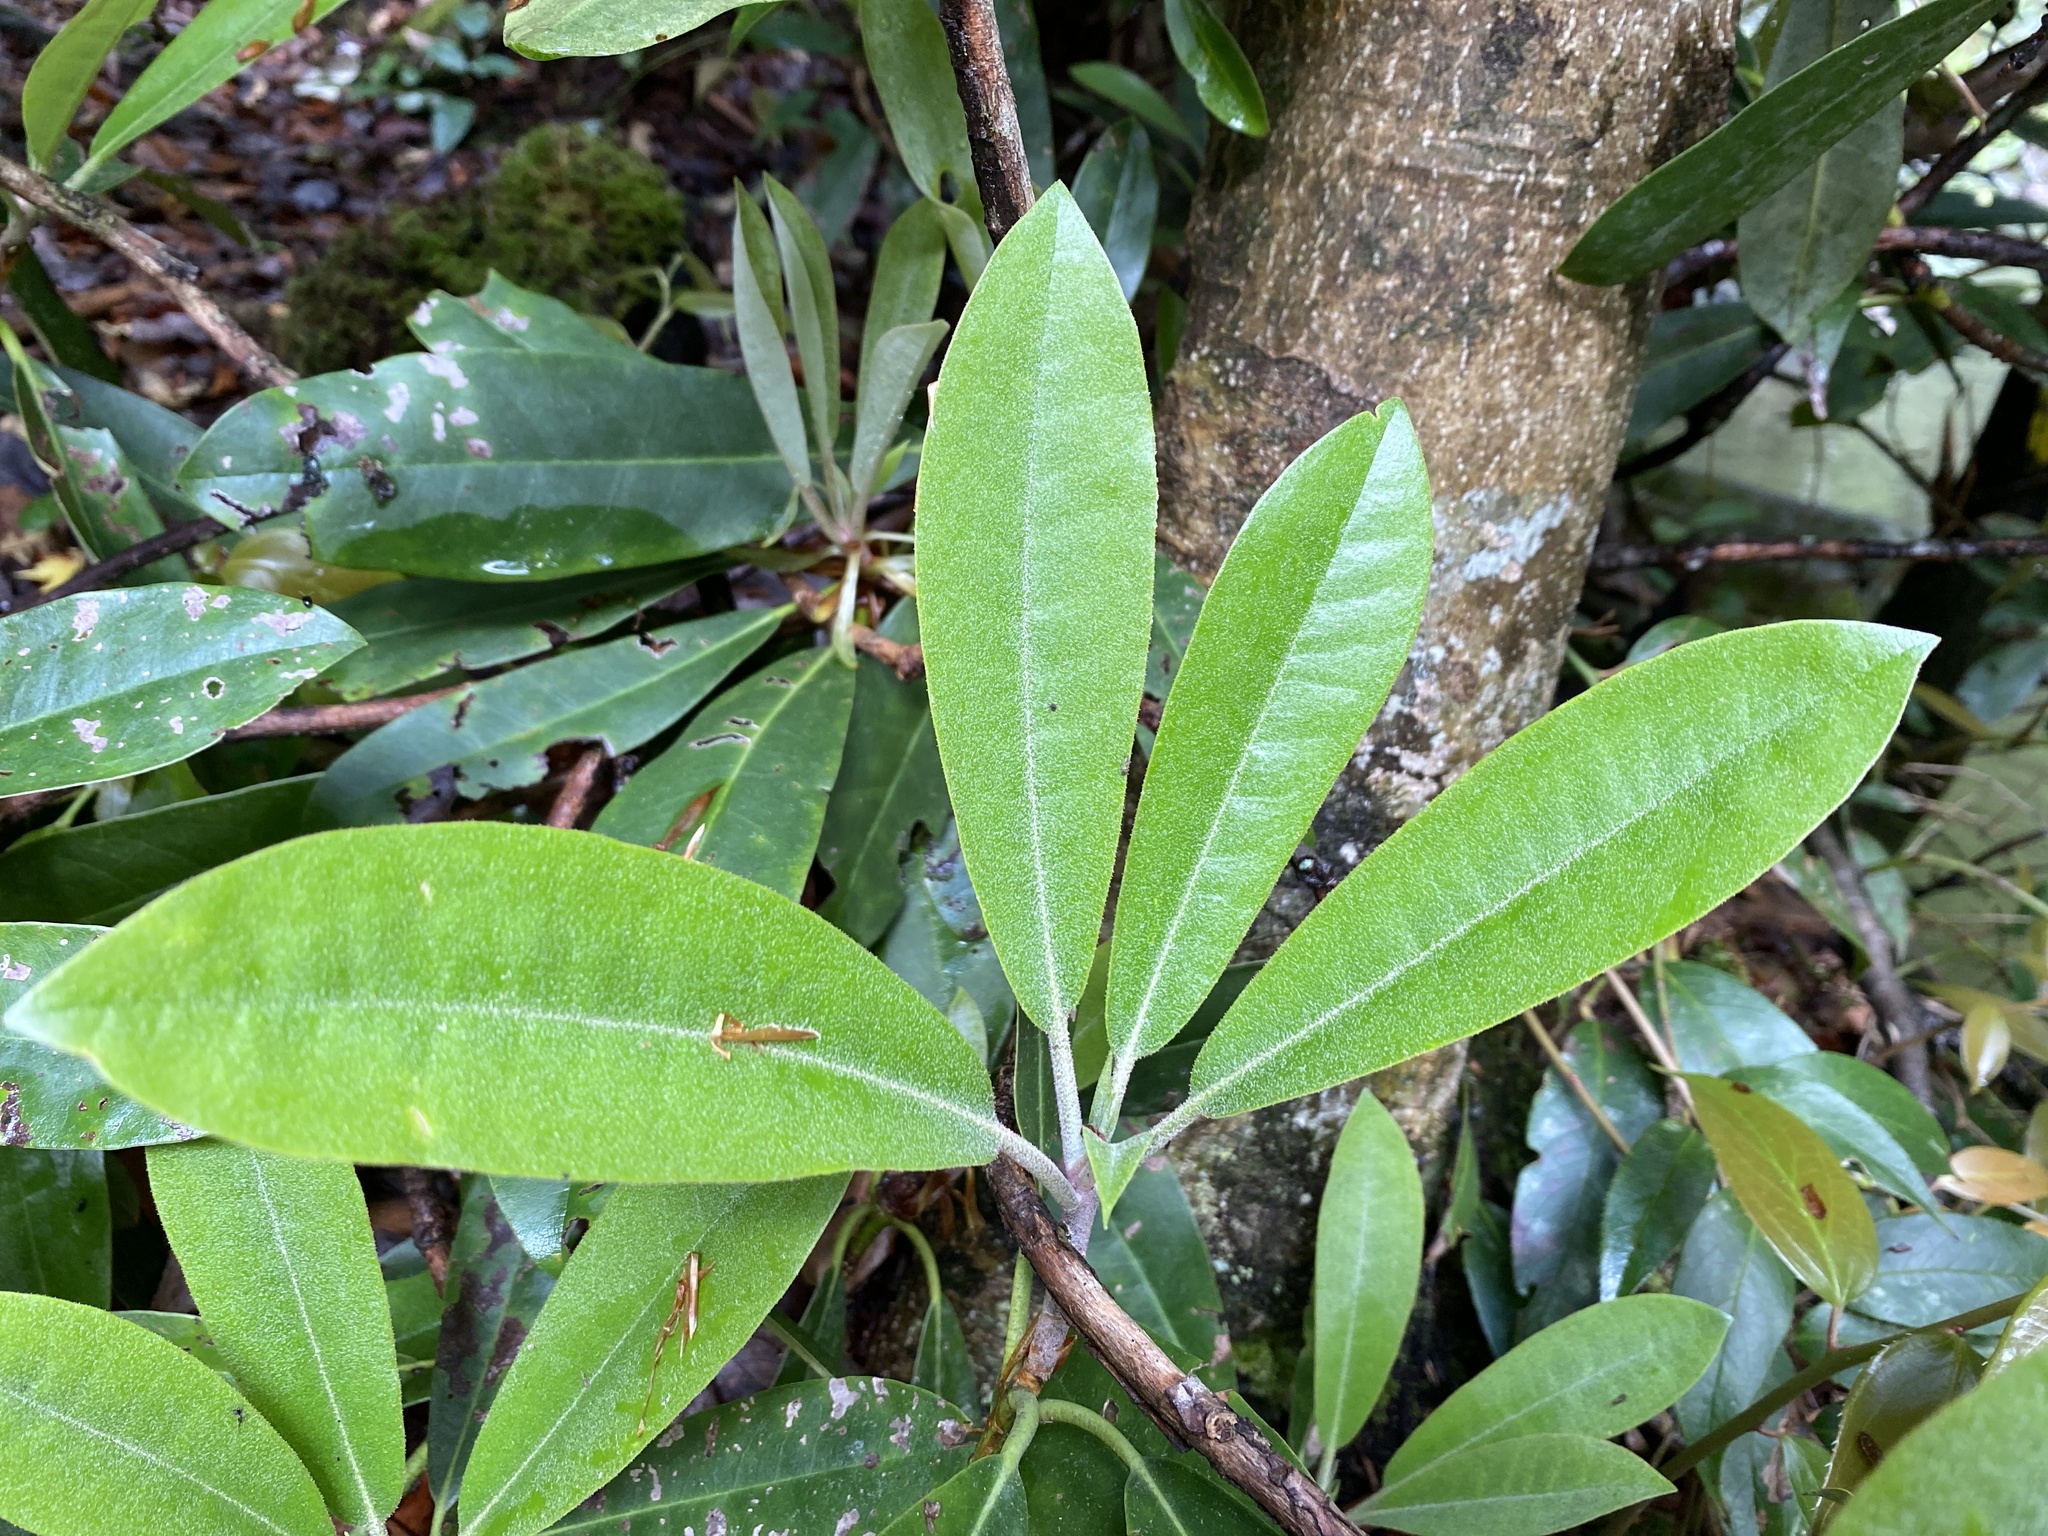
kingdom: Plantae
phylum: Tracheophyta
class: Magnoliopsida
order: Ericales
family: Ericaceae
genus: Rhododendron
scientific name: Rhododendron maximum
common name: Great rhododendron
